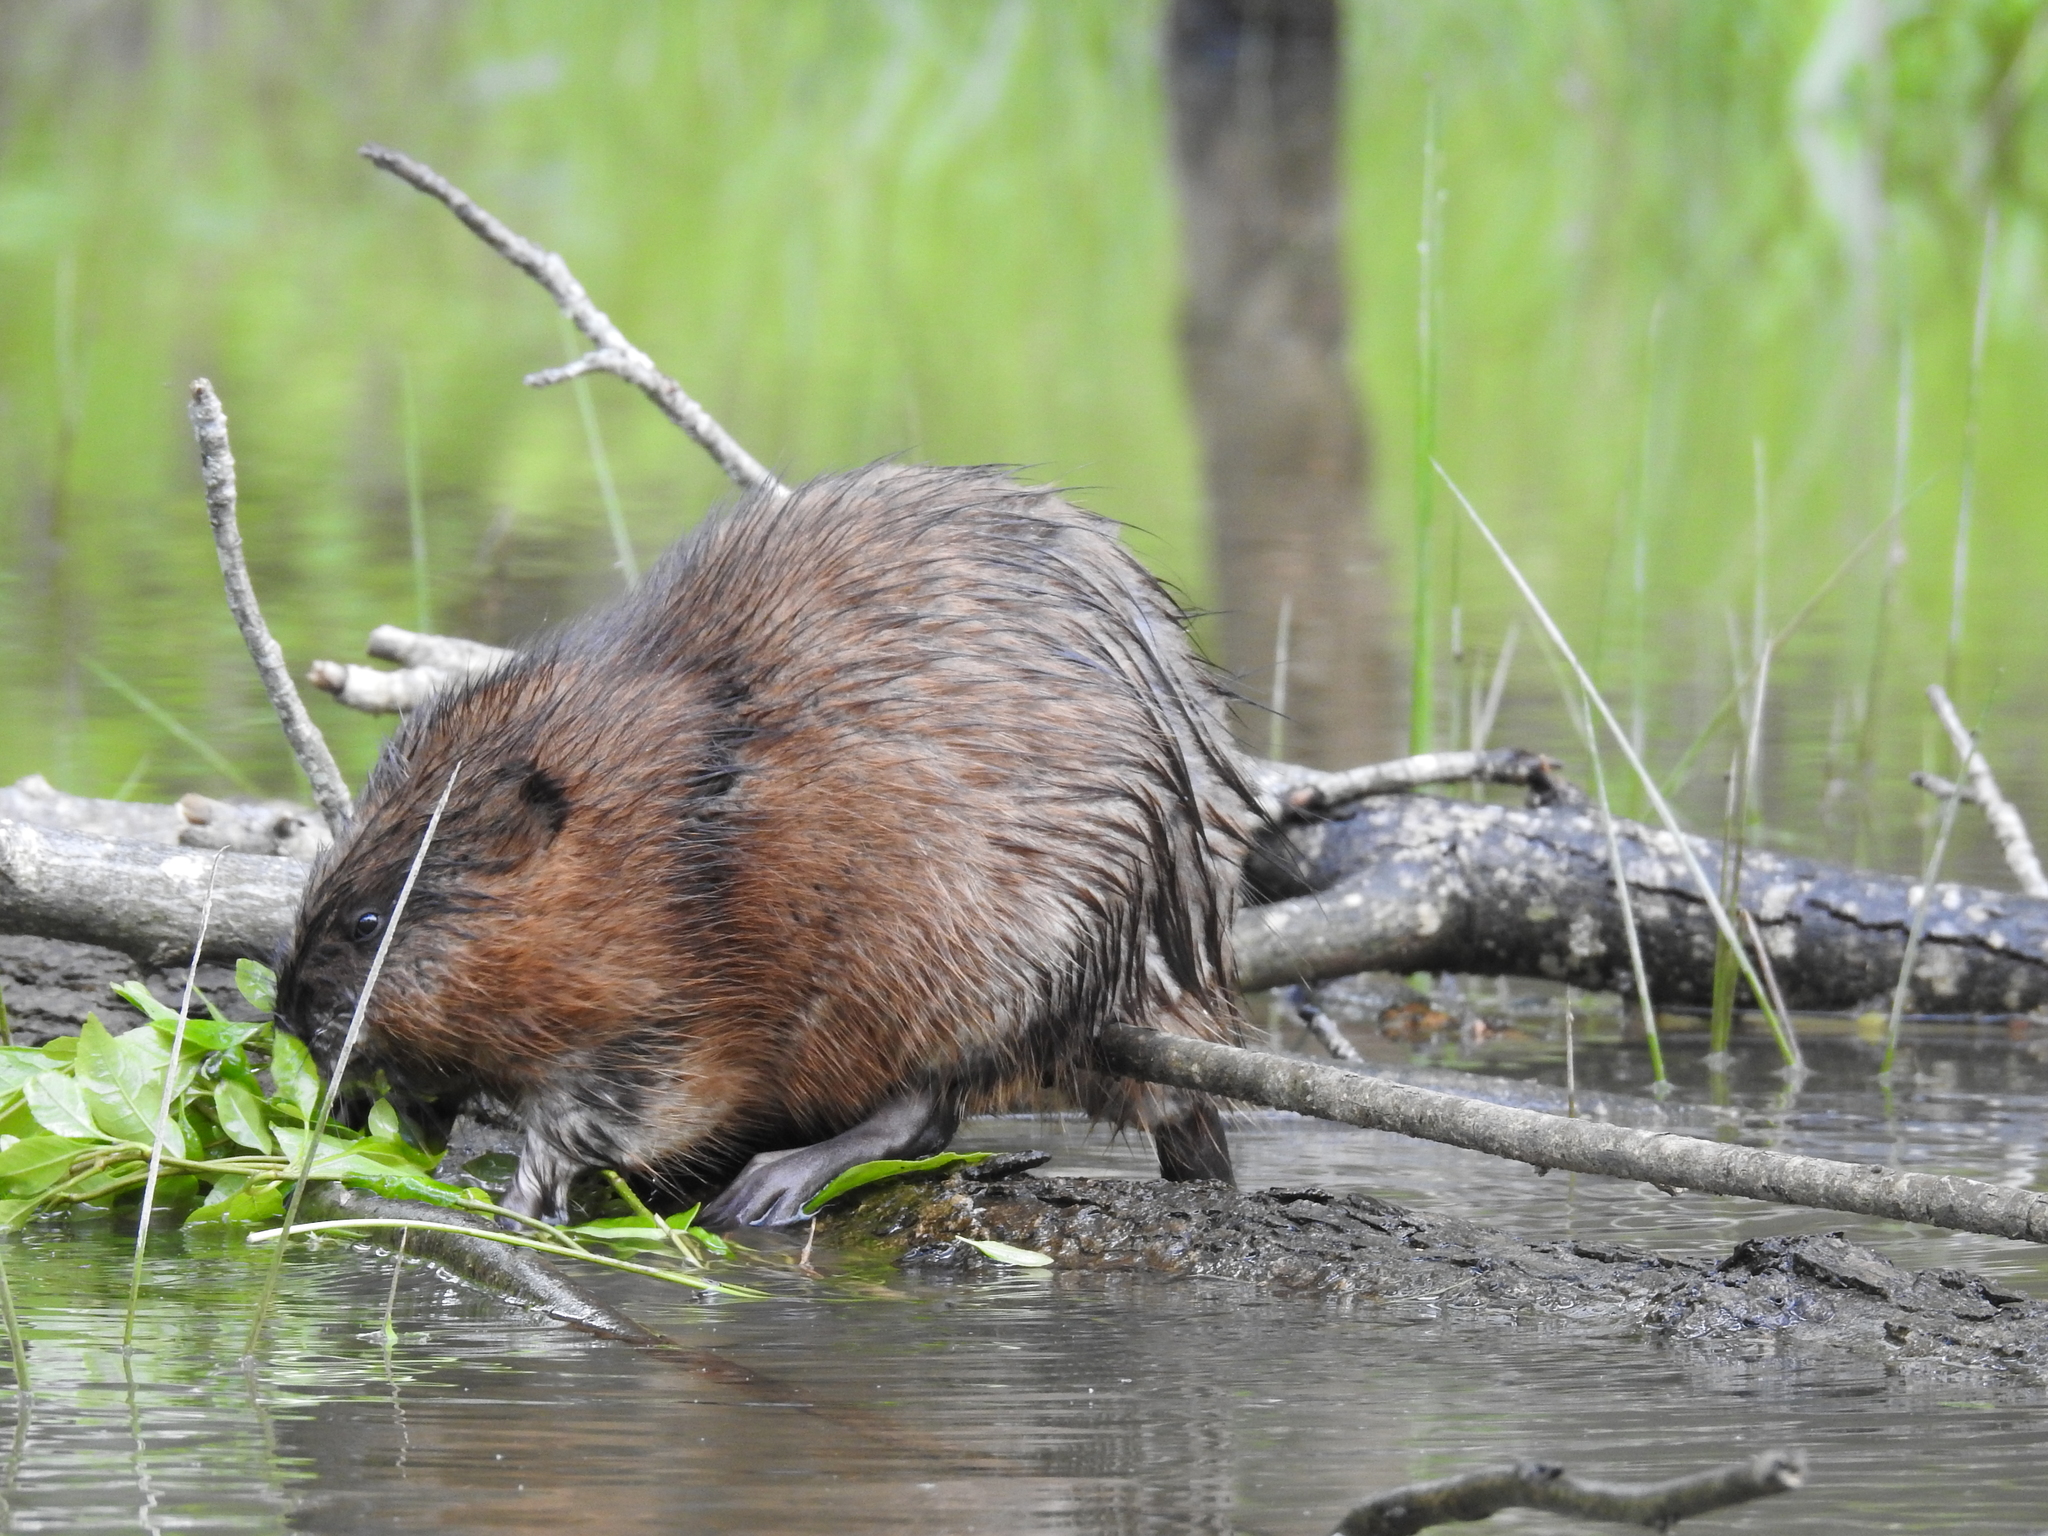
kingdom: Animalia
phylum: Chordata
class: Mammalia
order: Rodentia
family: Cricetidae
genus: Ondatra
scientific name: Ondatra zibethicus
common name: Muskrat
